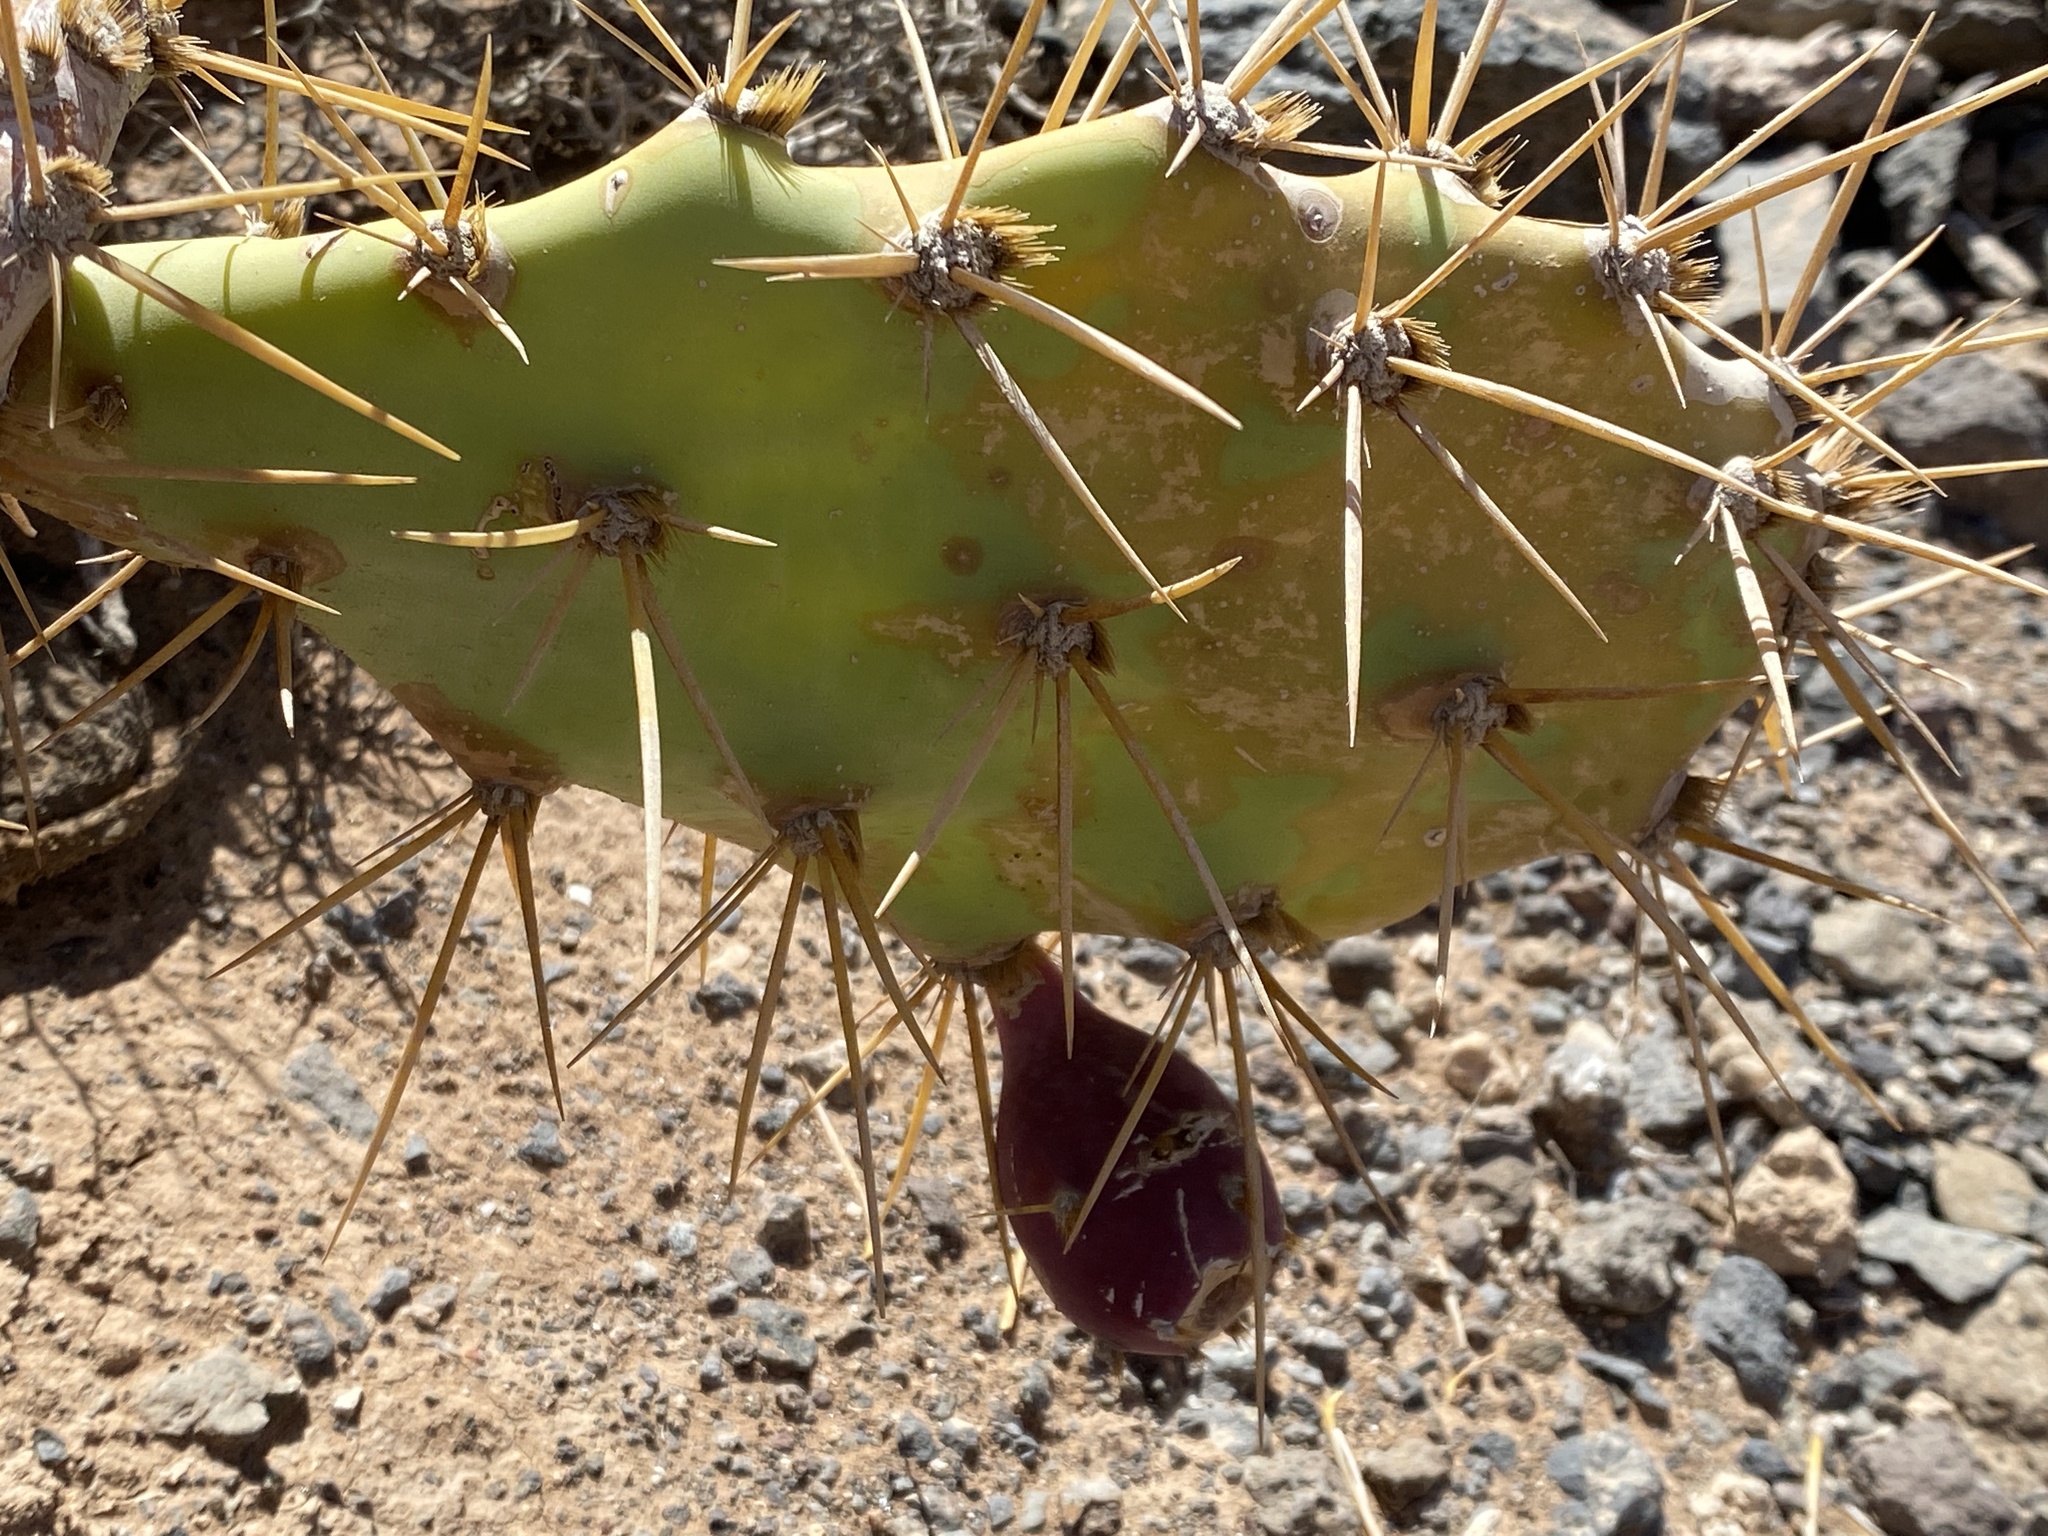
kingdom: Plantae
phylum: Tracheophyta
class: Magnoliopsida
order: Caryophyllales
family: Cactaceae
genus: Opuntia
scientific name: Opuntia stricta
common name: Erect pricklypear
